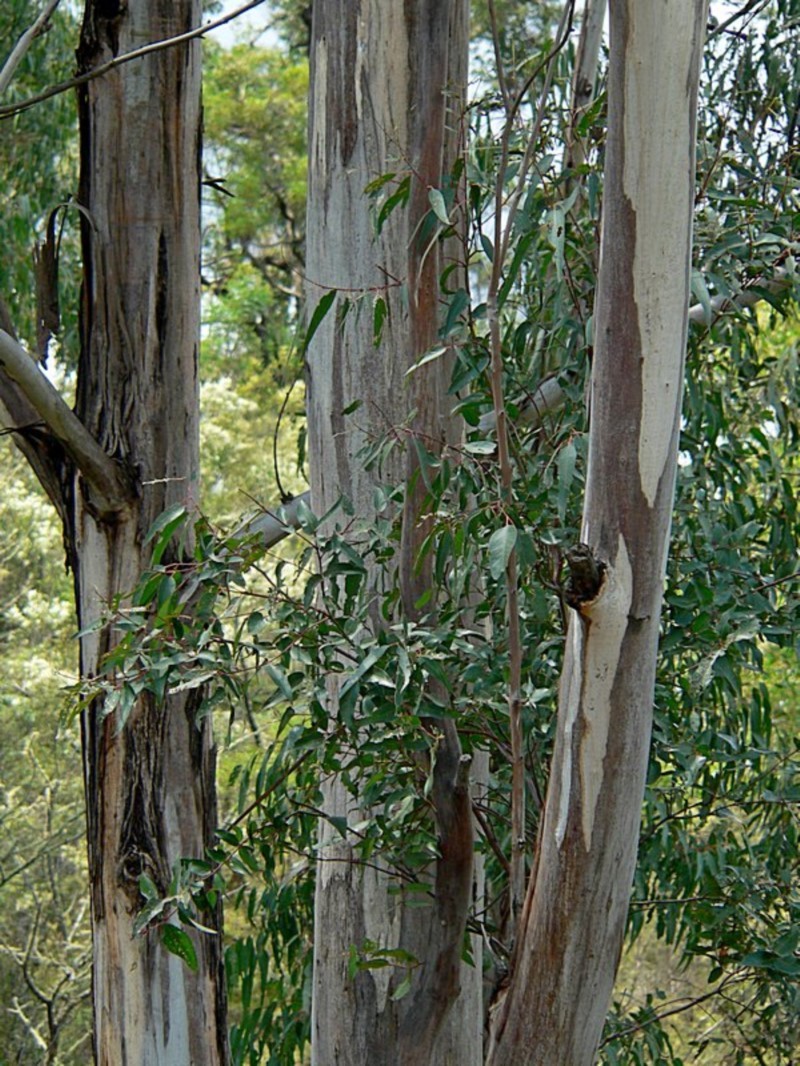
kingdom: Plantae
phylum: Tracheophyta
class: Magnoliopsida
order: Myrtales
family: Myrtaceae
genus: Eucalyptus
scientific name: Eucalyptus cypellocarpa
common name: Mountain grey gum
